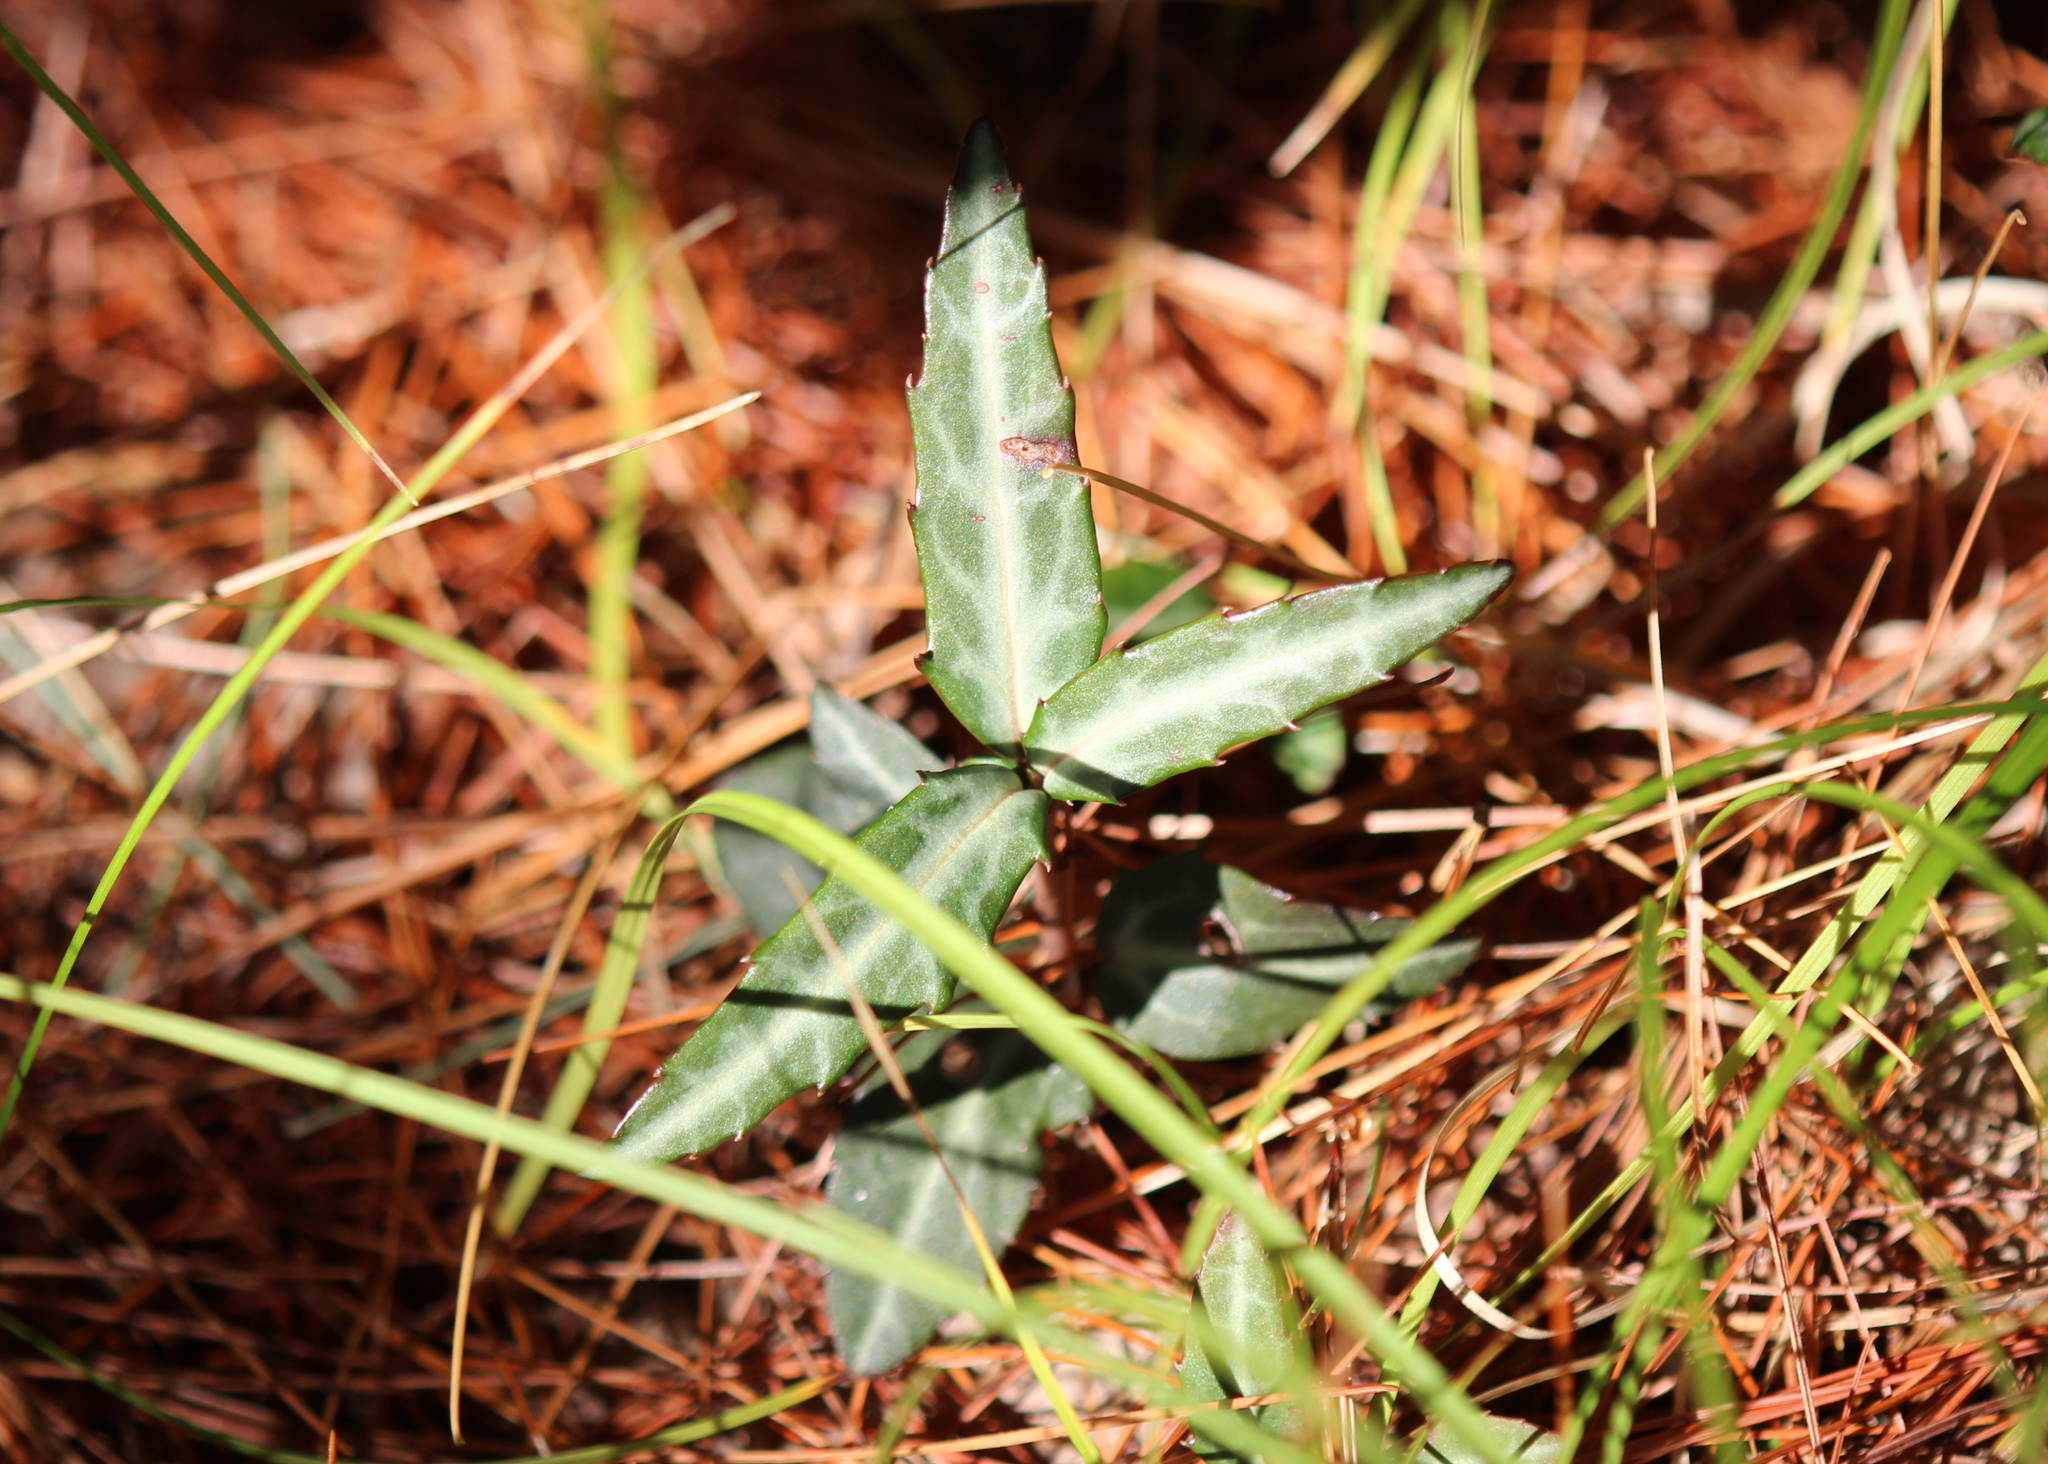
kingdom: Plantae
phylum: Tracheophyta
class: Magnoliopsida
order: Ericales
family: Ericaceae
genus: Chimaphila
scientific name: Chimaphila maculata
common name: Spotted pipsissewa
